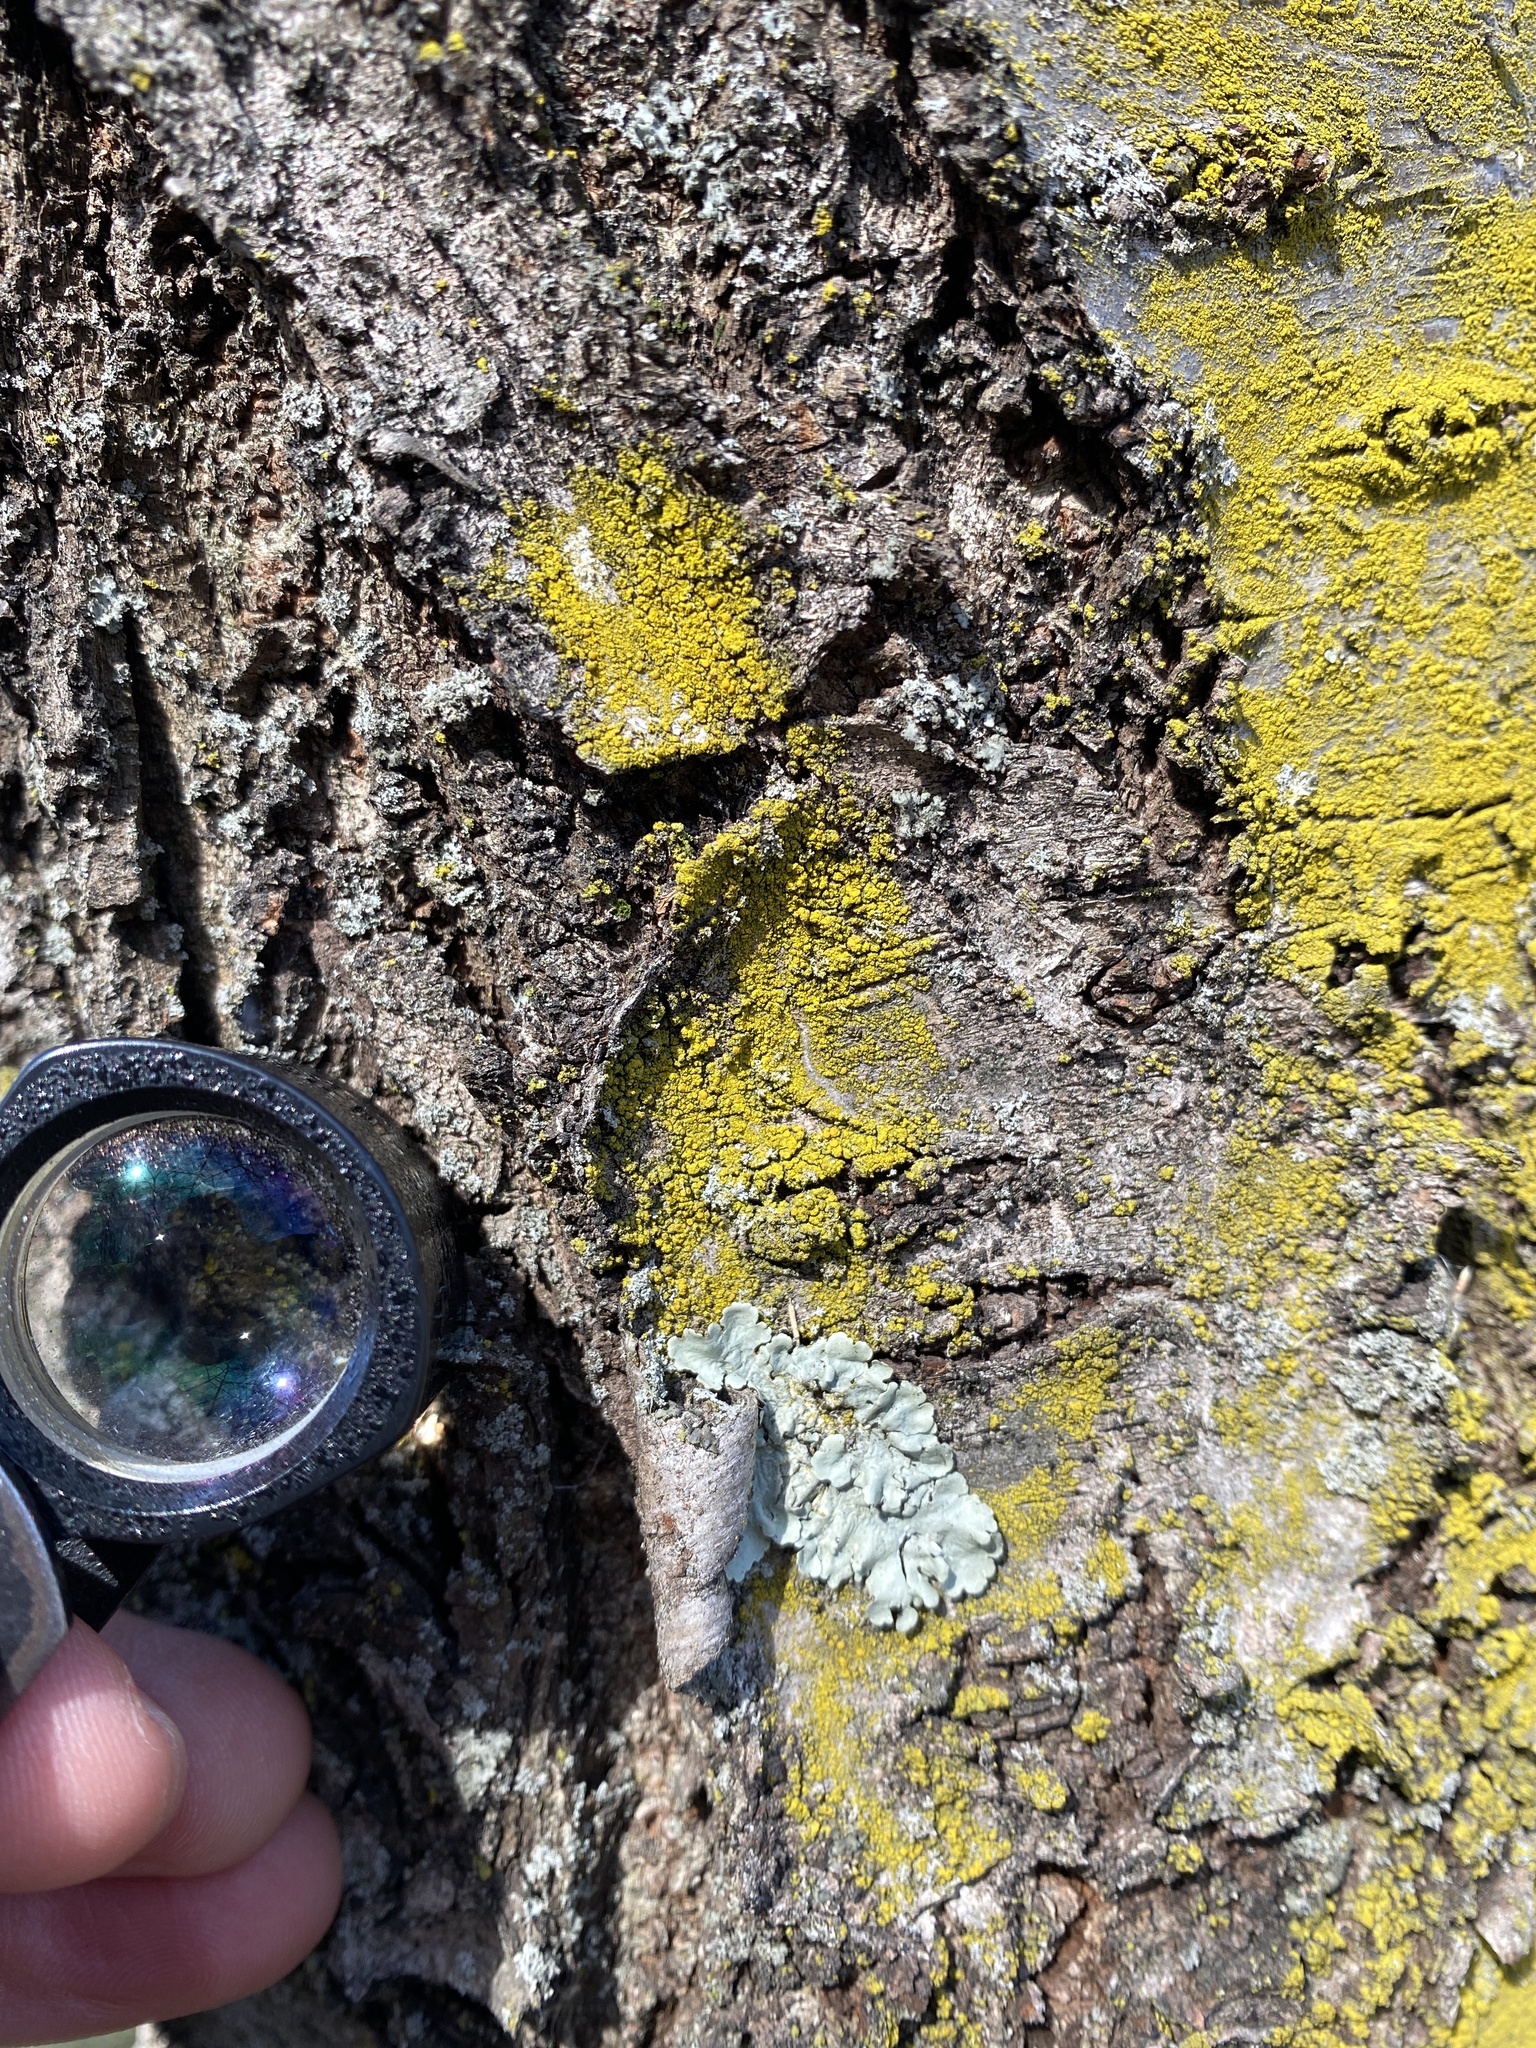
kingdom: Fungi
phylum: Ascomycota
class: Candelariomycetes
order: Candelariales
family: Candelariaceae
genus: Candelariella
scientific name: Candelariella efflorescens
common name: Powdery goldspeck
